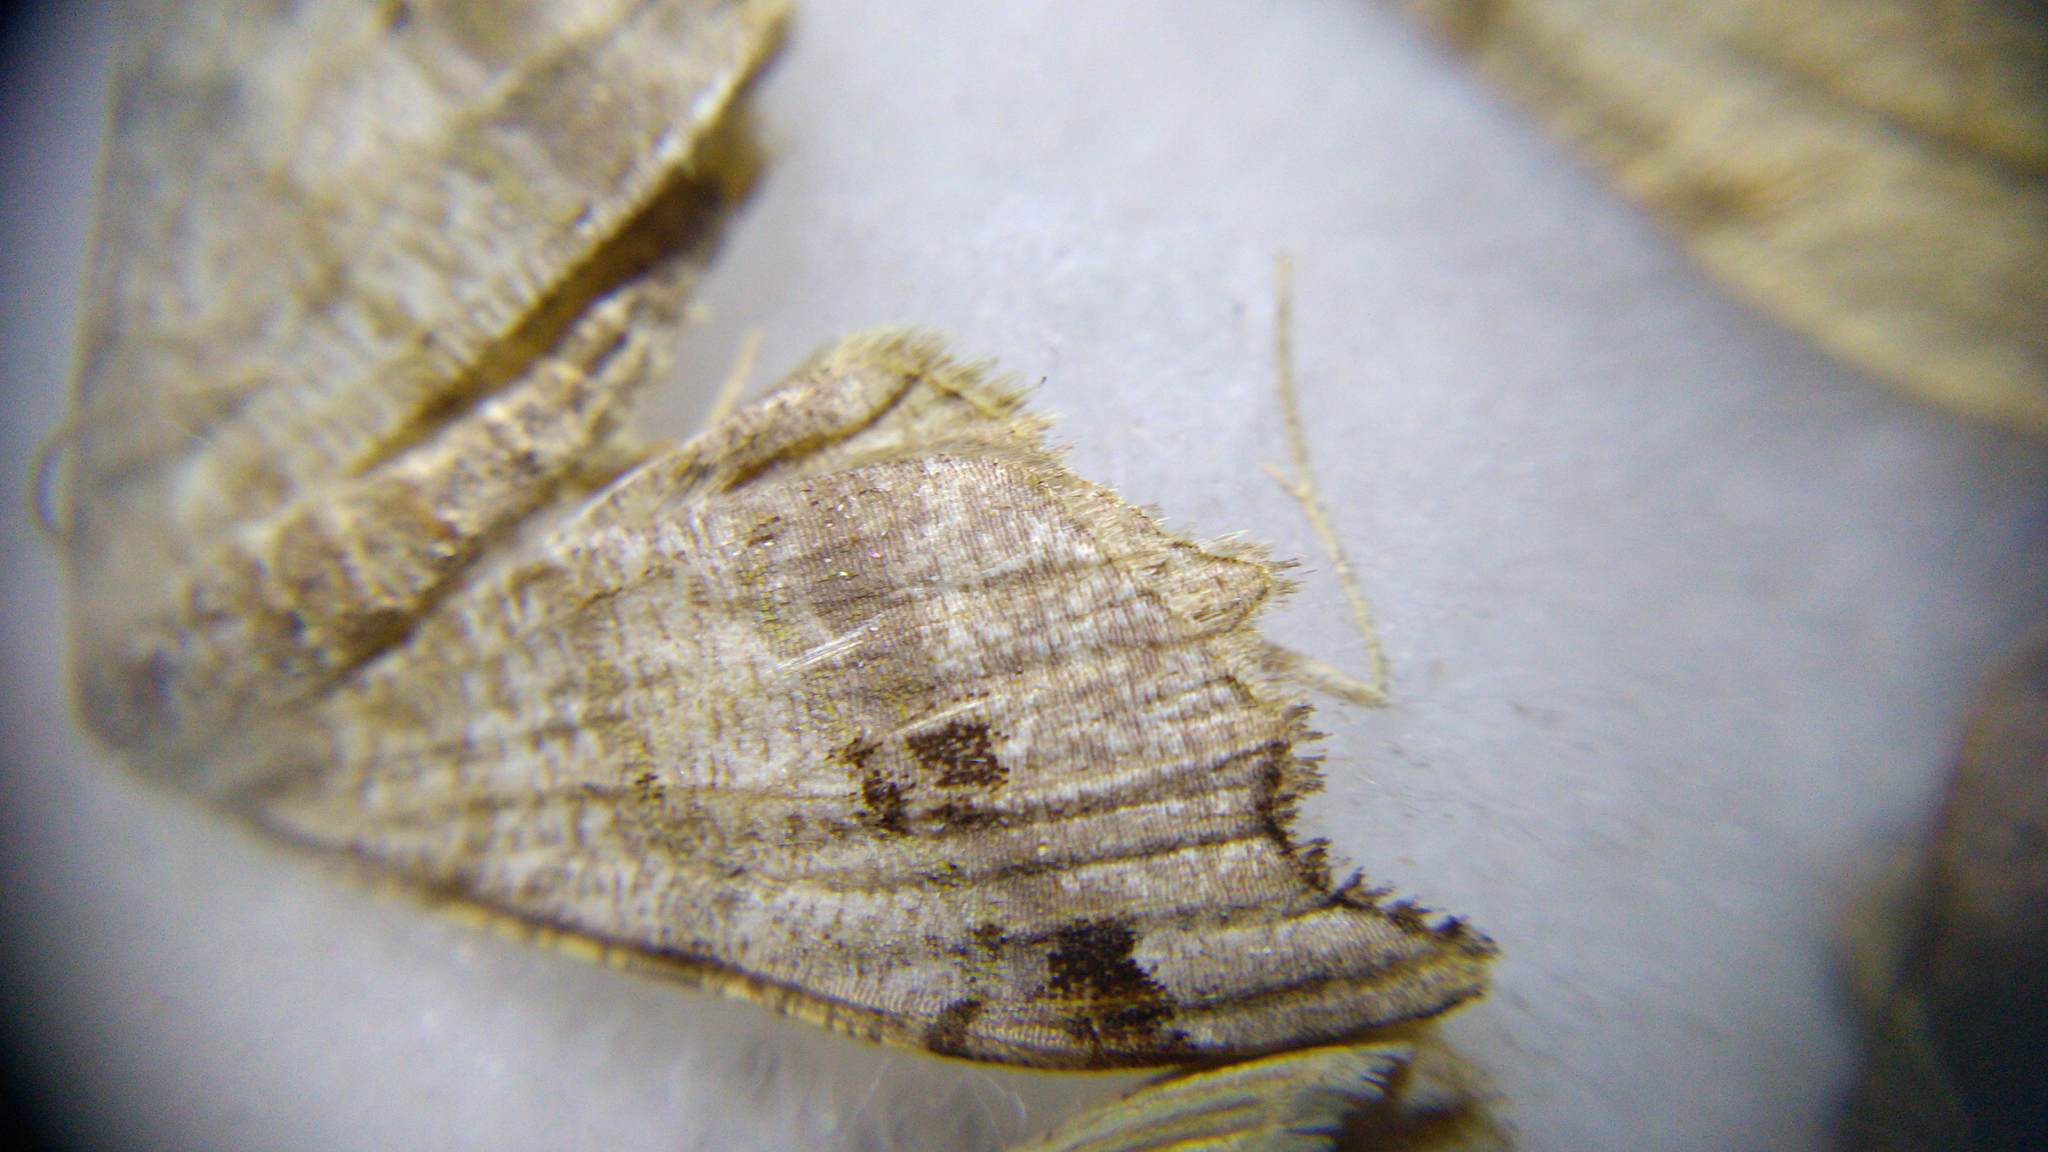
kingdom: Animalia
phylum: Arthropoda
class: Insecta
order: Lepidoptera
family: Geometridae
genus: Macaria
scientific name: Macaria alternata
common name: Sharp-angled peacock
